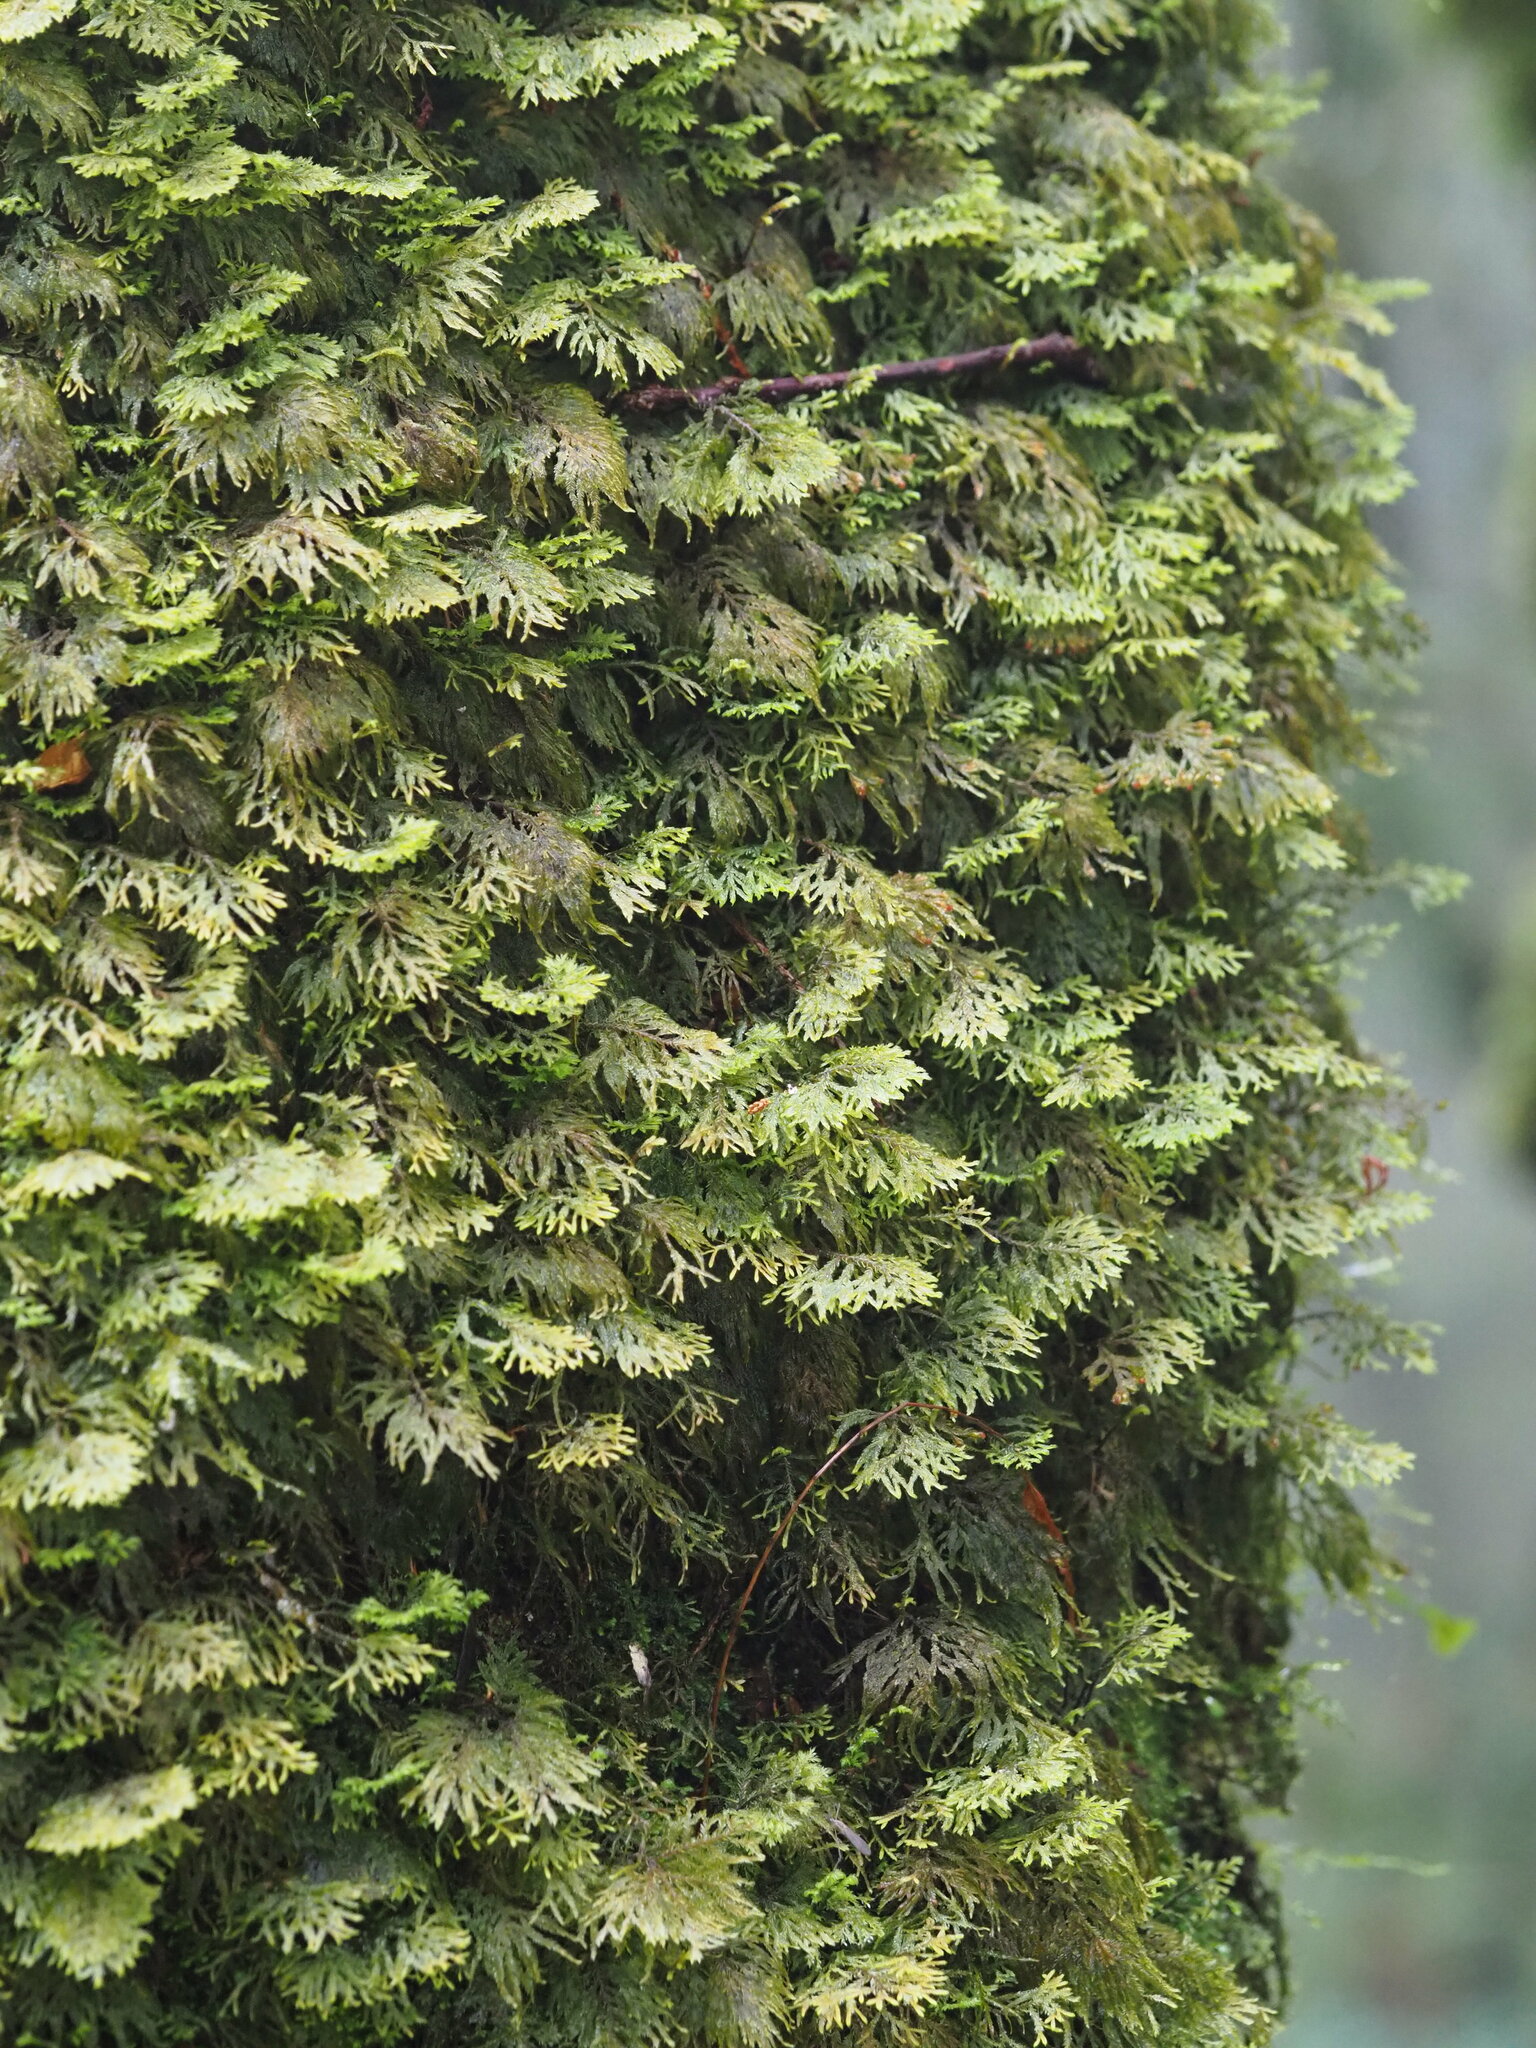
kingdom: Plantae
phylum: Marchantiophyta
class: Jungermanniopsida
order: Jungermanniales
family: Plagiochilaceae
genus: Plagiochila
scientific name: Plagiochila pulcherrima
